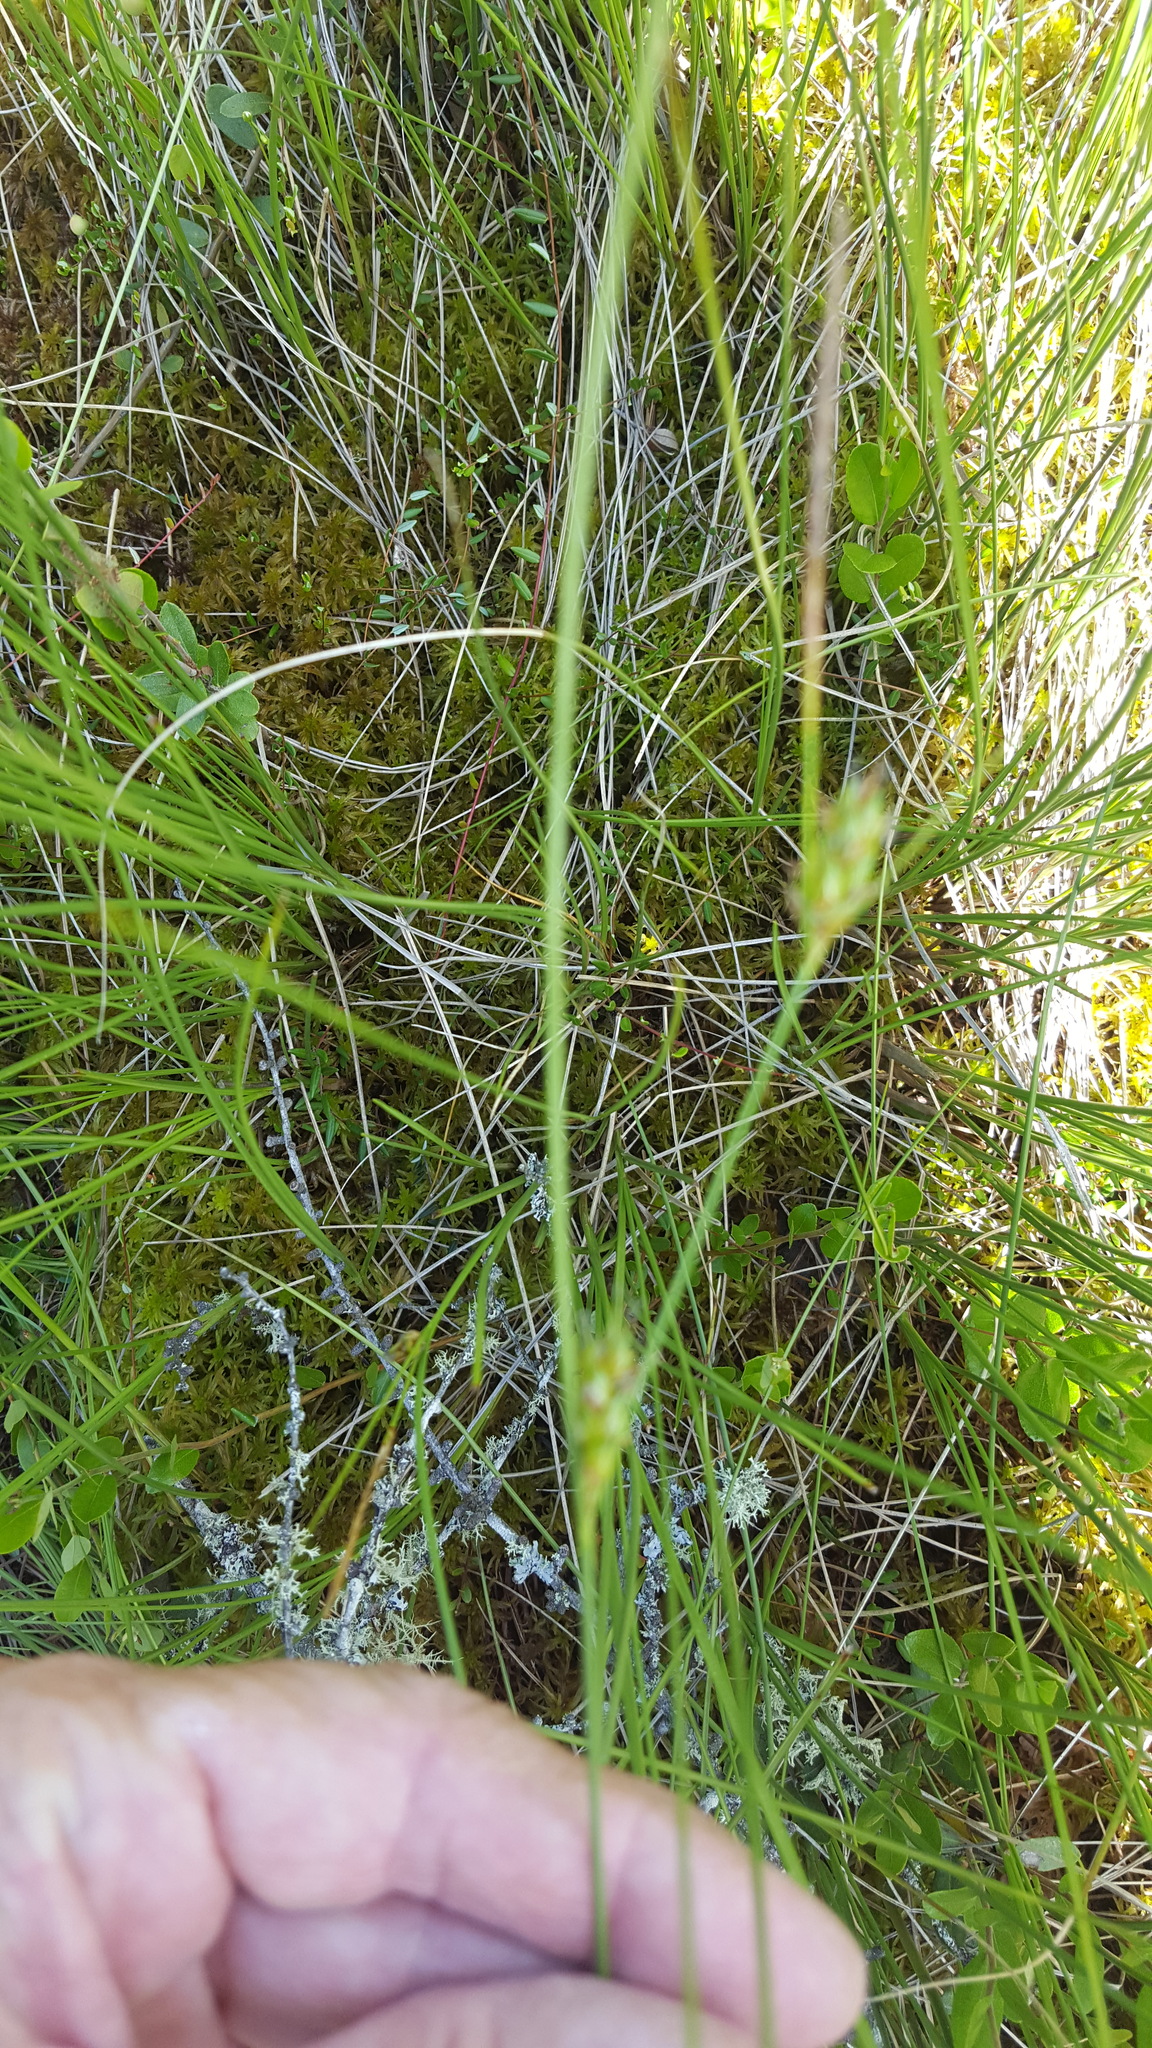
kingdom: Plantae
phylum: Tracheophyta
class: Liliopsida
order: Poales
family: Cyperaceae
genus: Carex
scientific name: Carex oligosperma
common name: Few-seed sedge
